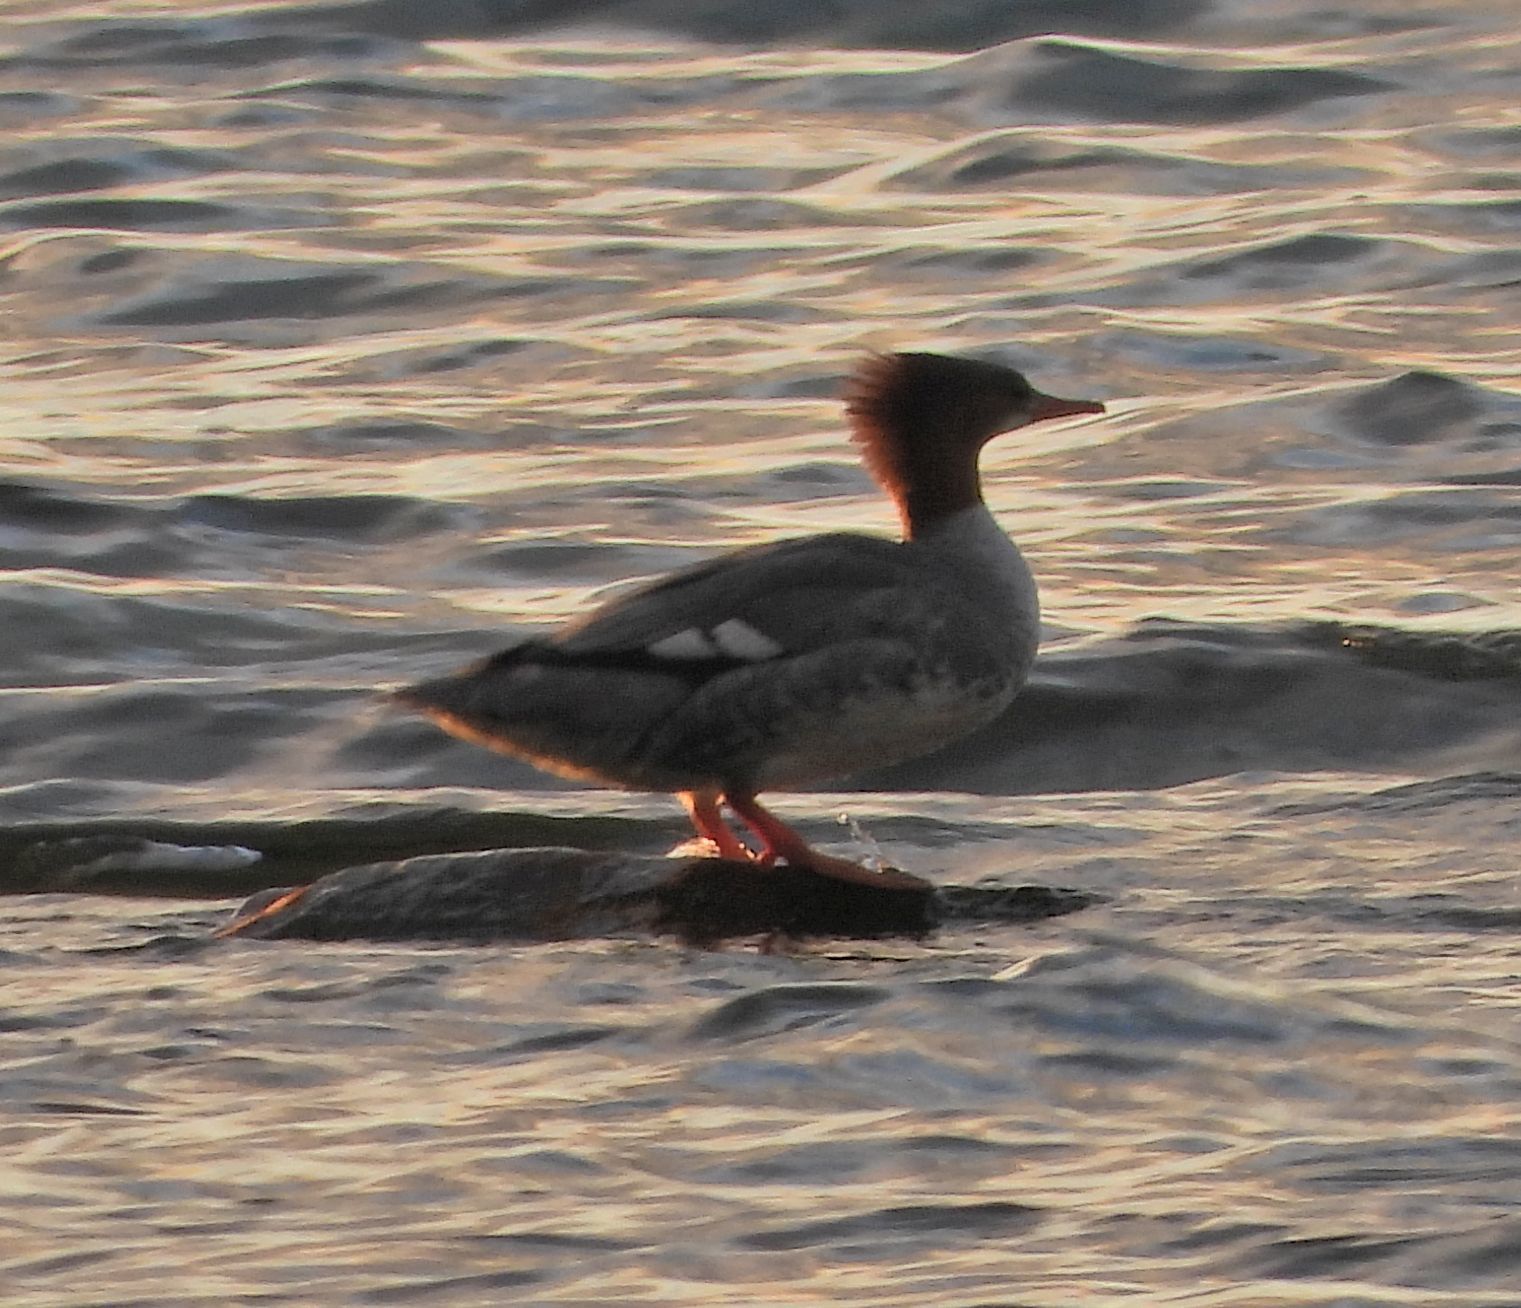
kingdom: Animalia
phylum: Chordata
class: Aves
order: Anseriformes
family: Anatidae
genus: Mergus
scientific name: Mergus merganser
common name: Common merganser
